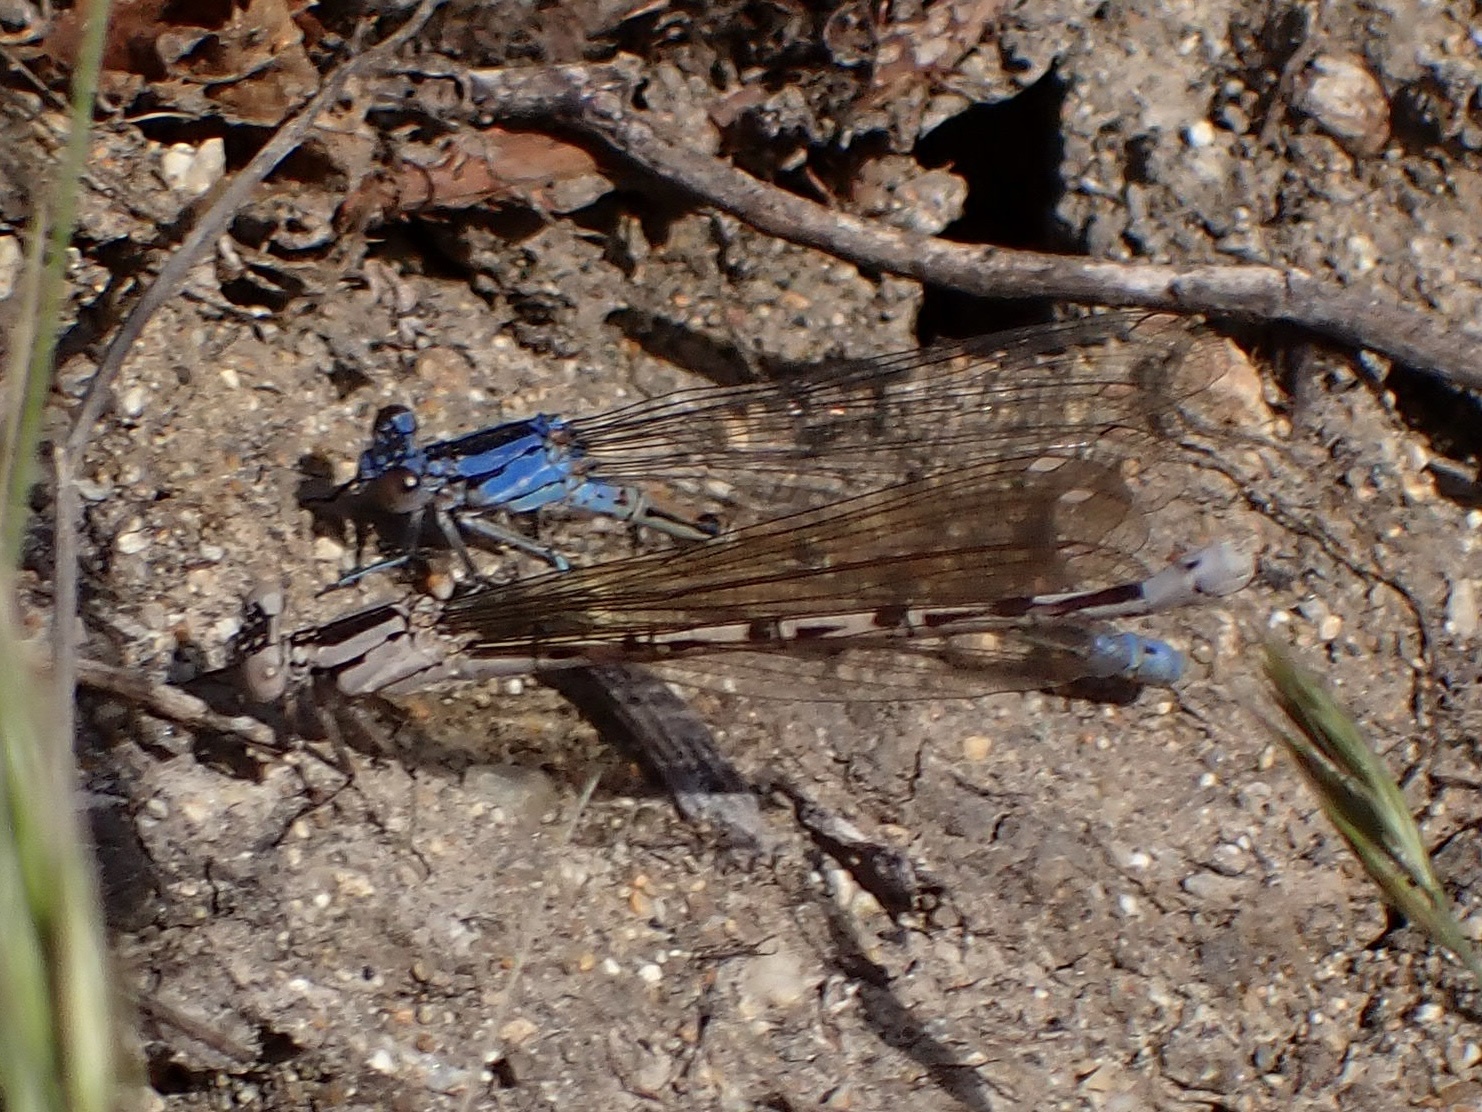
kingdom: Animalia
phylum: Arthropoda
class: Insecta
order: Odonata
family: Coenagrionidae
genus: Argia
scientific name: Argia vivida
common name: Vivid dancer
